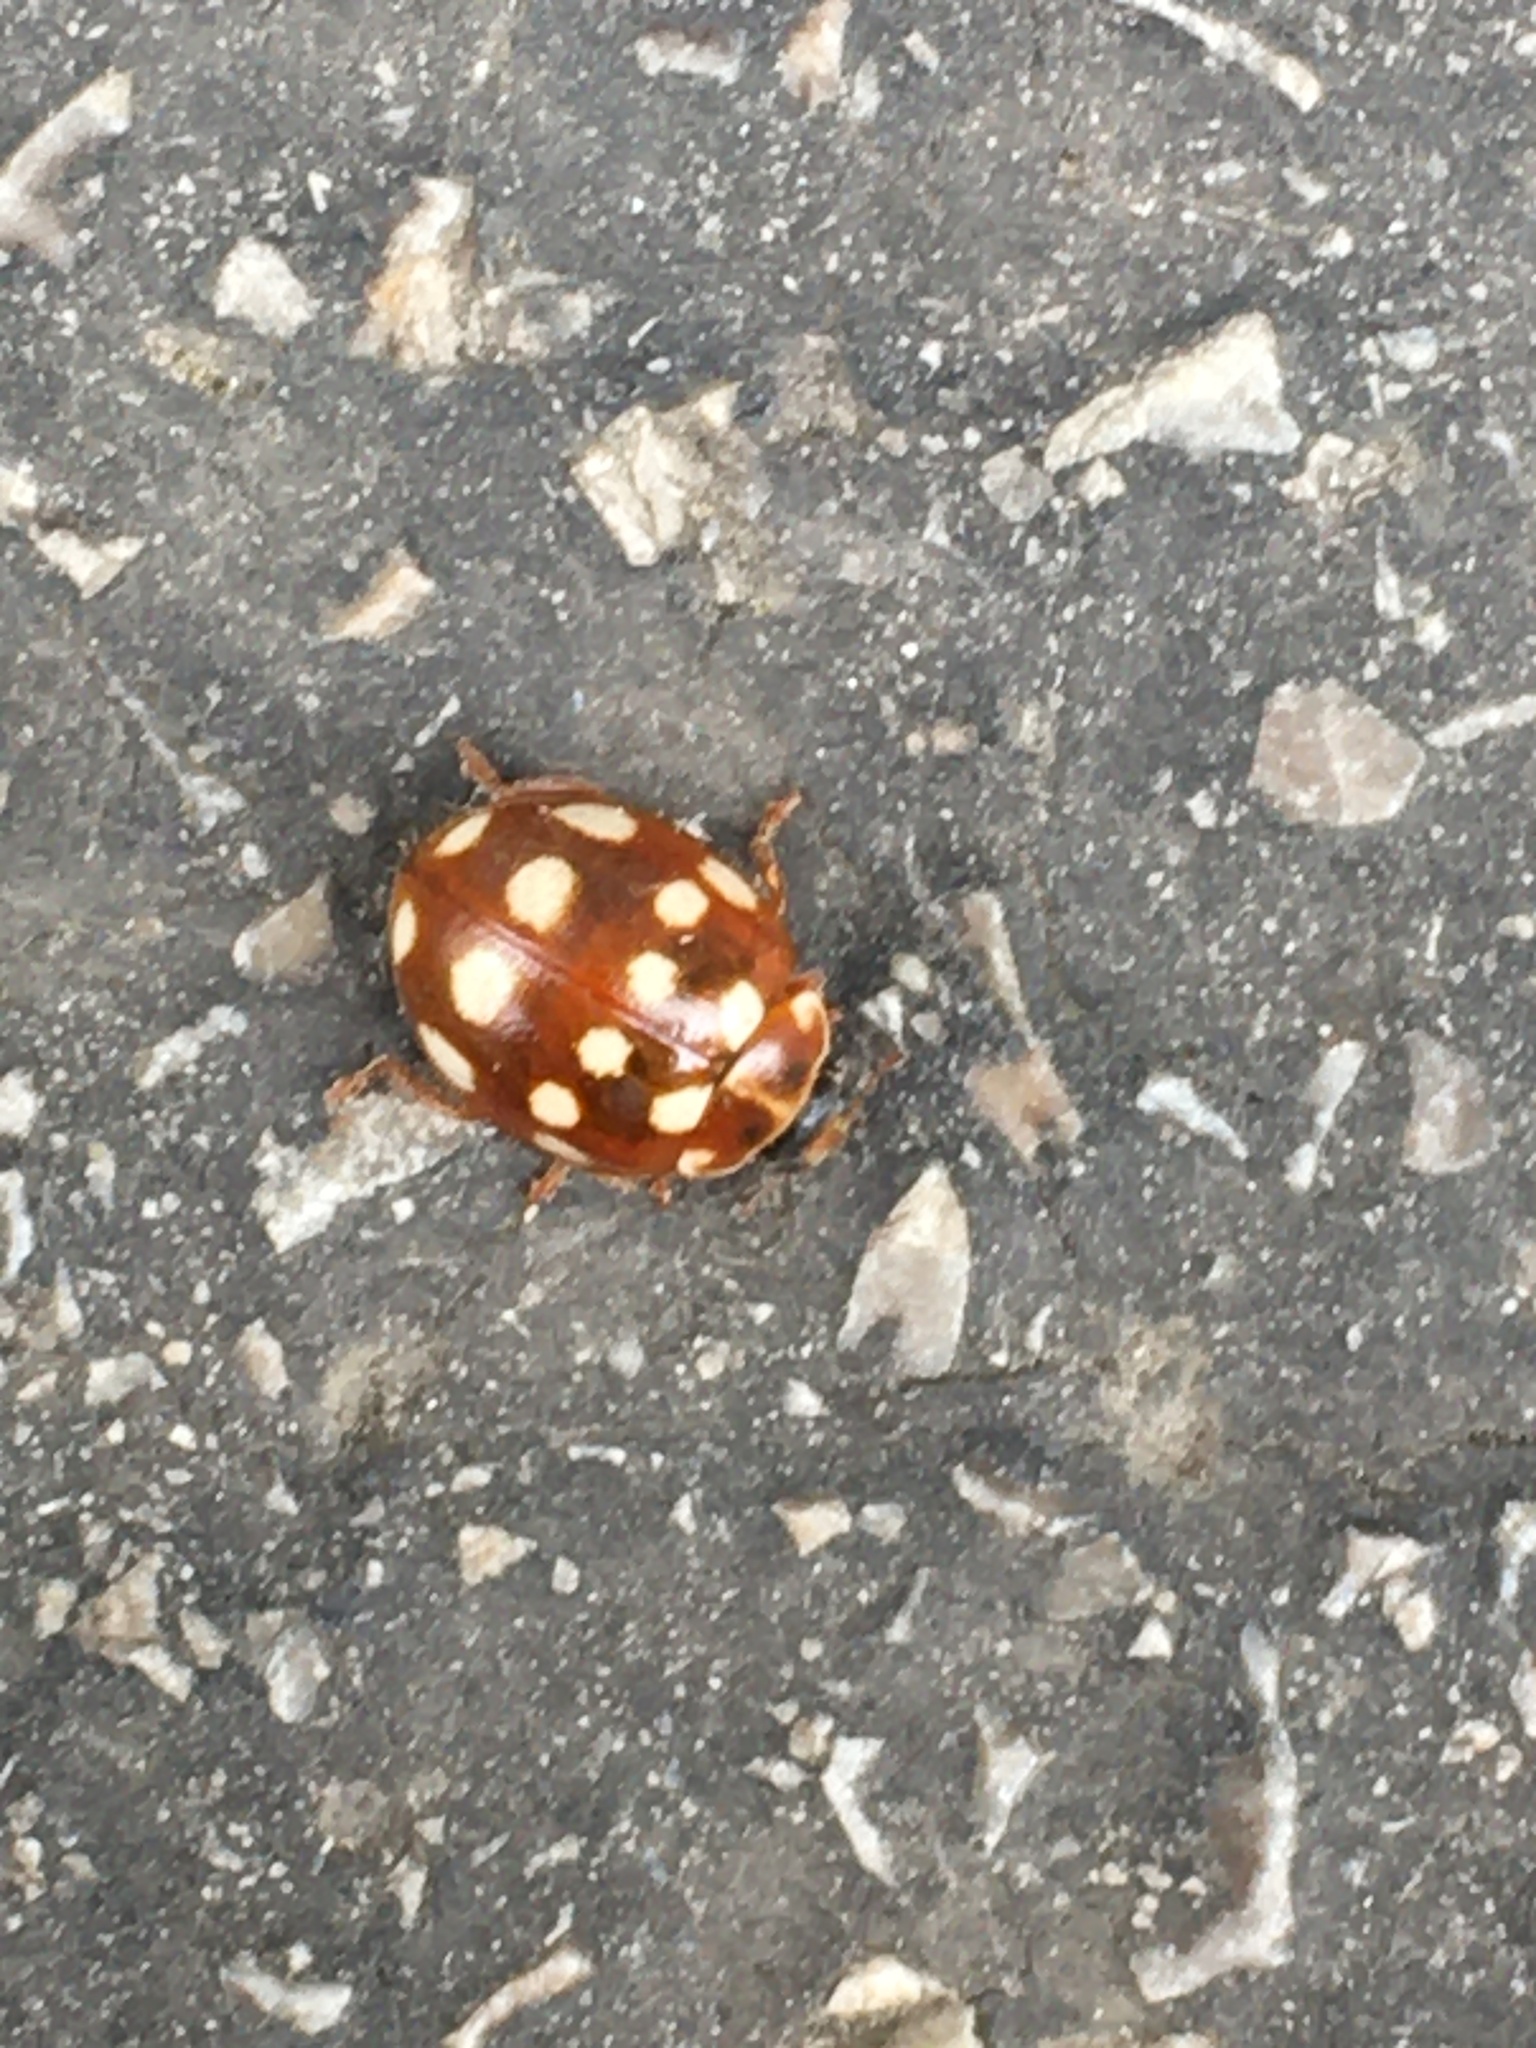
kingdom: Animalia
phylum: Arthropoda
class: Insecta
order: Coleoptera
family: Coccinellidae
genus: Calvia
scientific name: Calvia quatuordecimguttata
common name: Cream-spot ladybird
